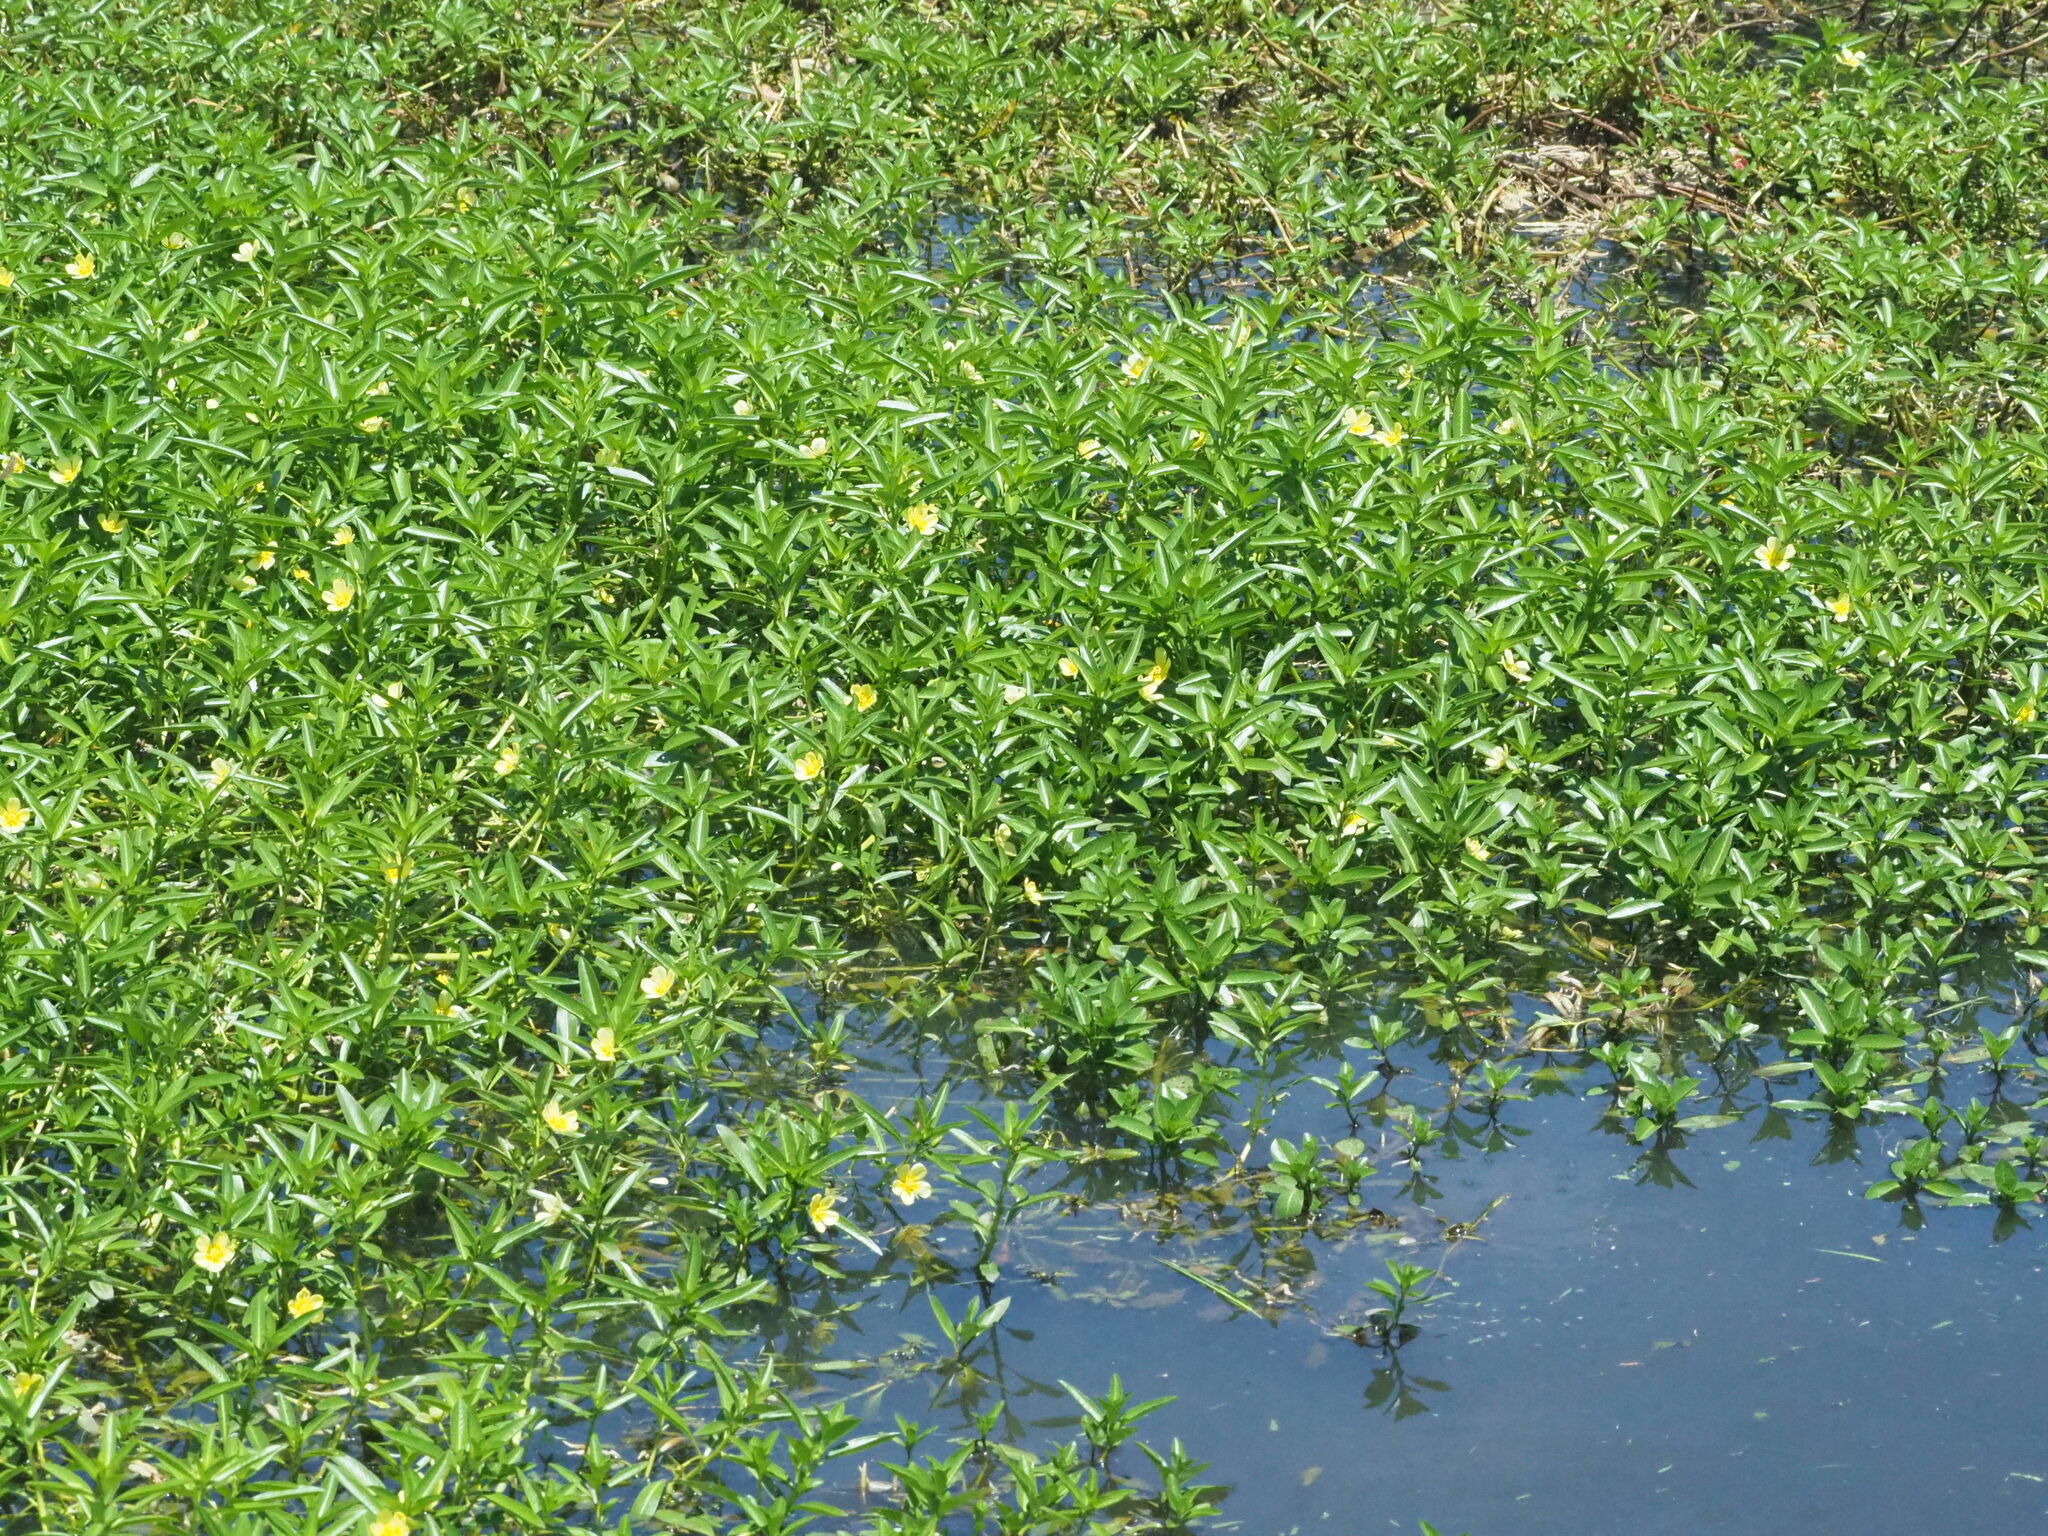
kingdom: Plantae
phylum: Tracheophyta
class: Magnoliopsida
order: Myrtales
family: Onagraceae
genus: Ludwigia
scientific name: Ludwigia taiwanensis
